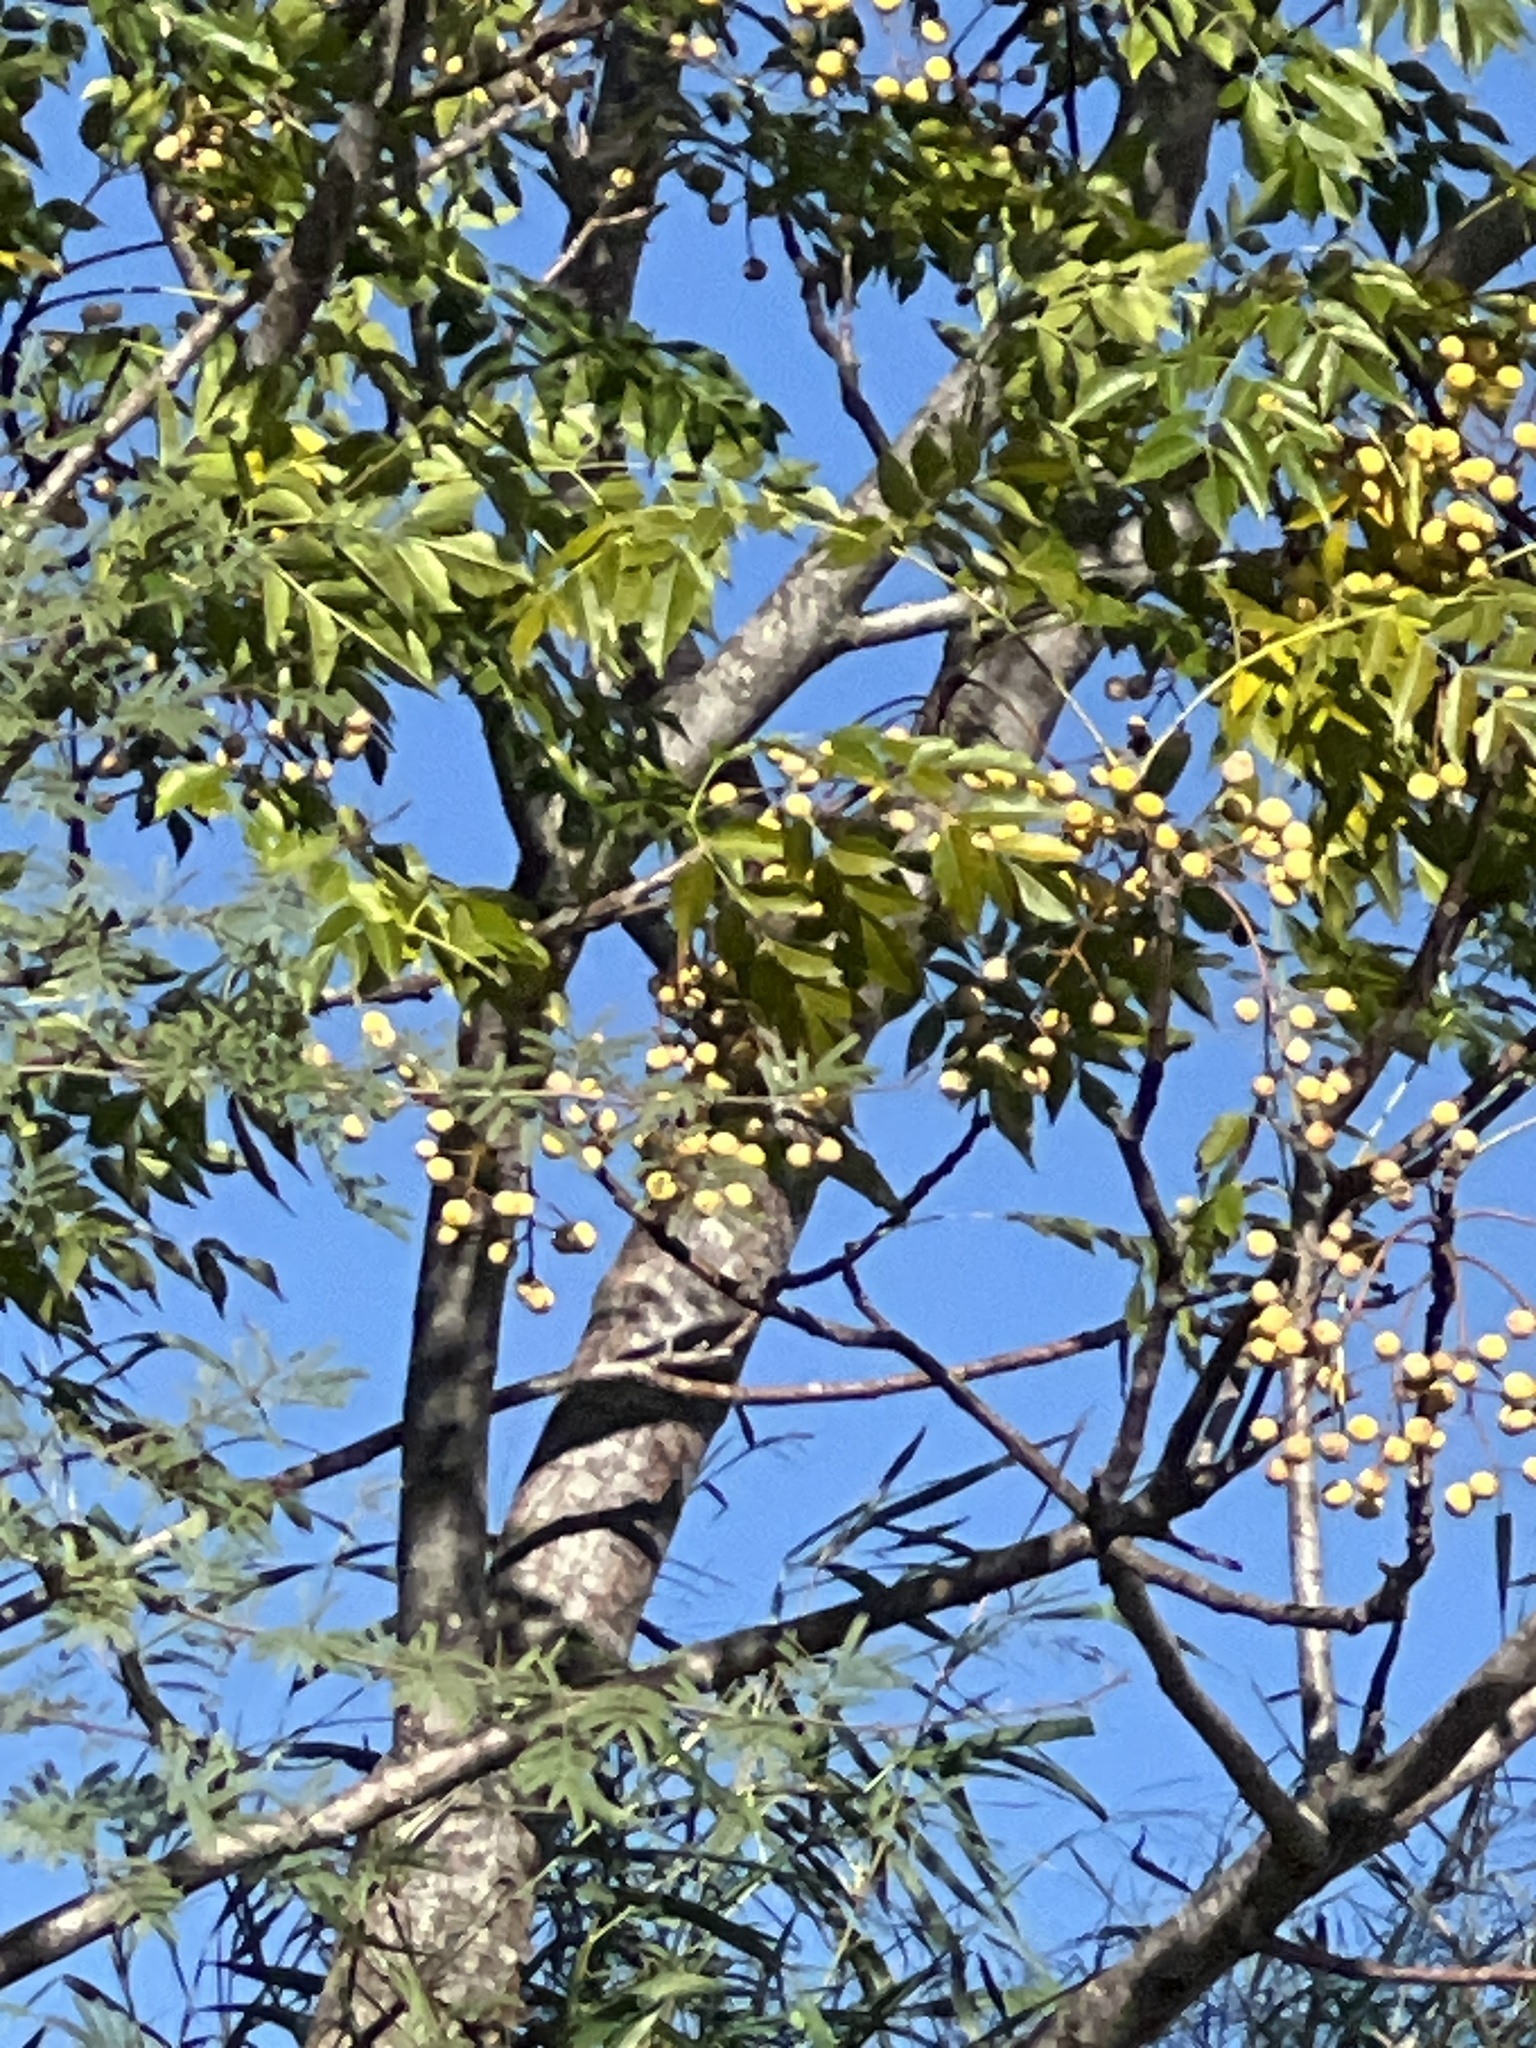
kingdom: Plantae
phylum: Tracheophyta
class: Magnoliopsida
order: Sapindales
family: Meliaceae
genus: Melia
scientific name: Melia azedarach
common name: Chinaberrytree
